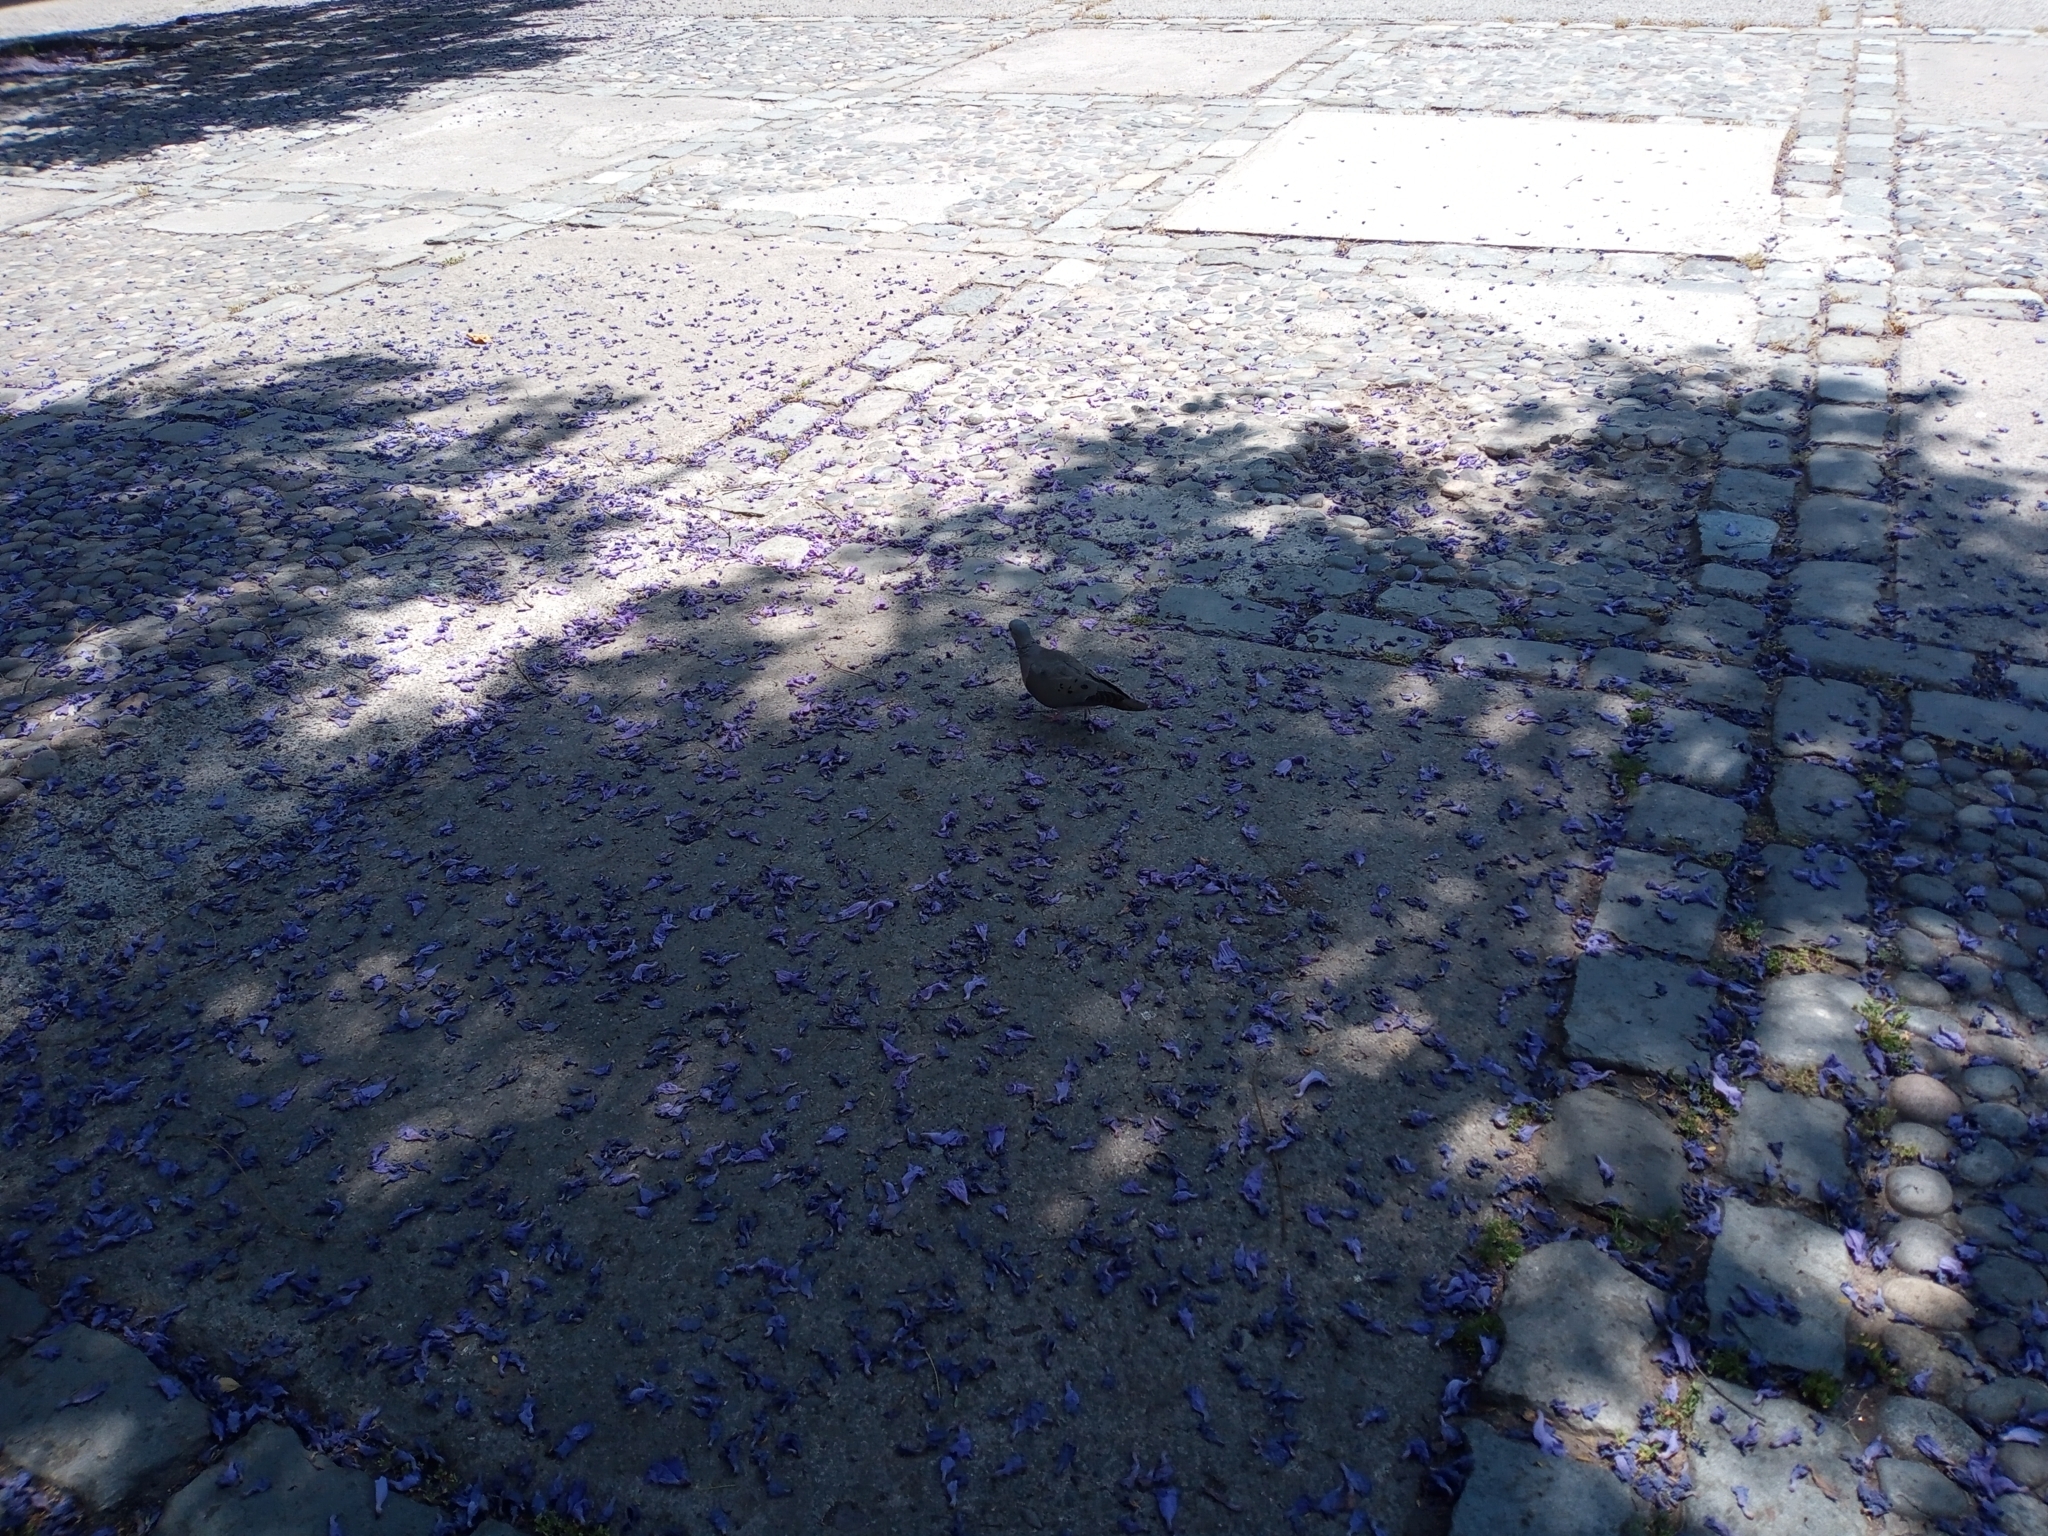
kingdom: Animalia
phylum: Chordata
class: Aves
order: Columbiformes
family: Columbidae
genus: Zenaida
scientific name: Zenaida auriculata
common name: Eared dove
